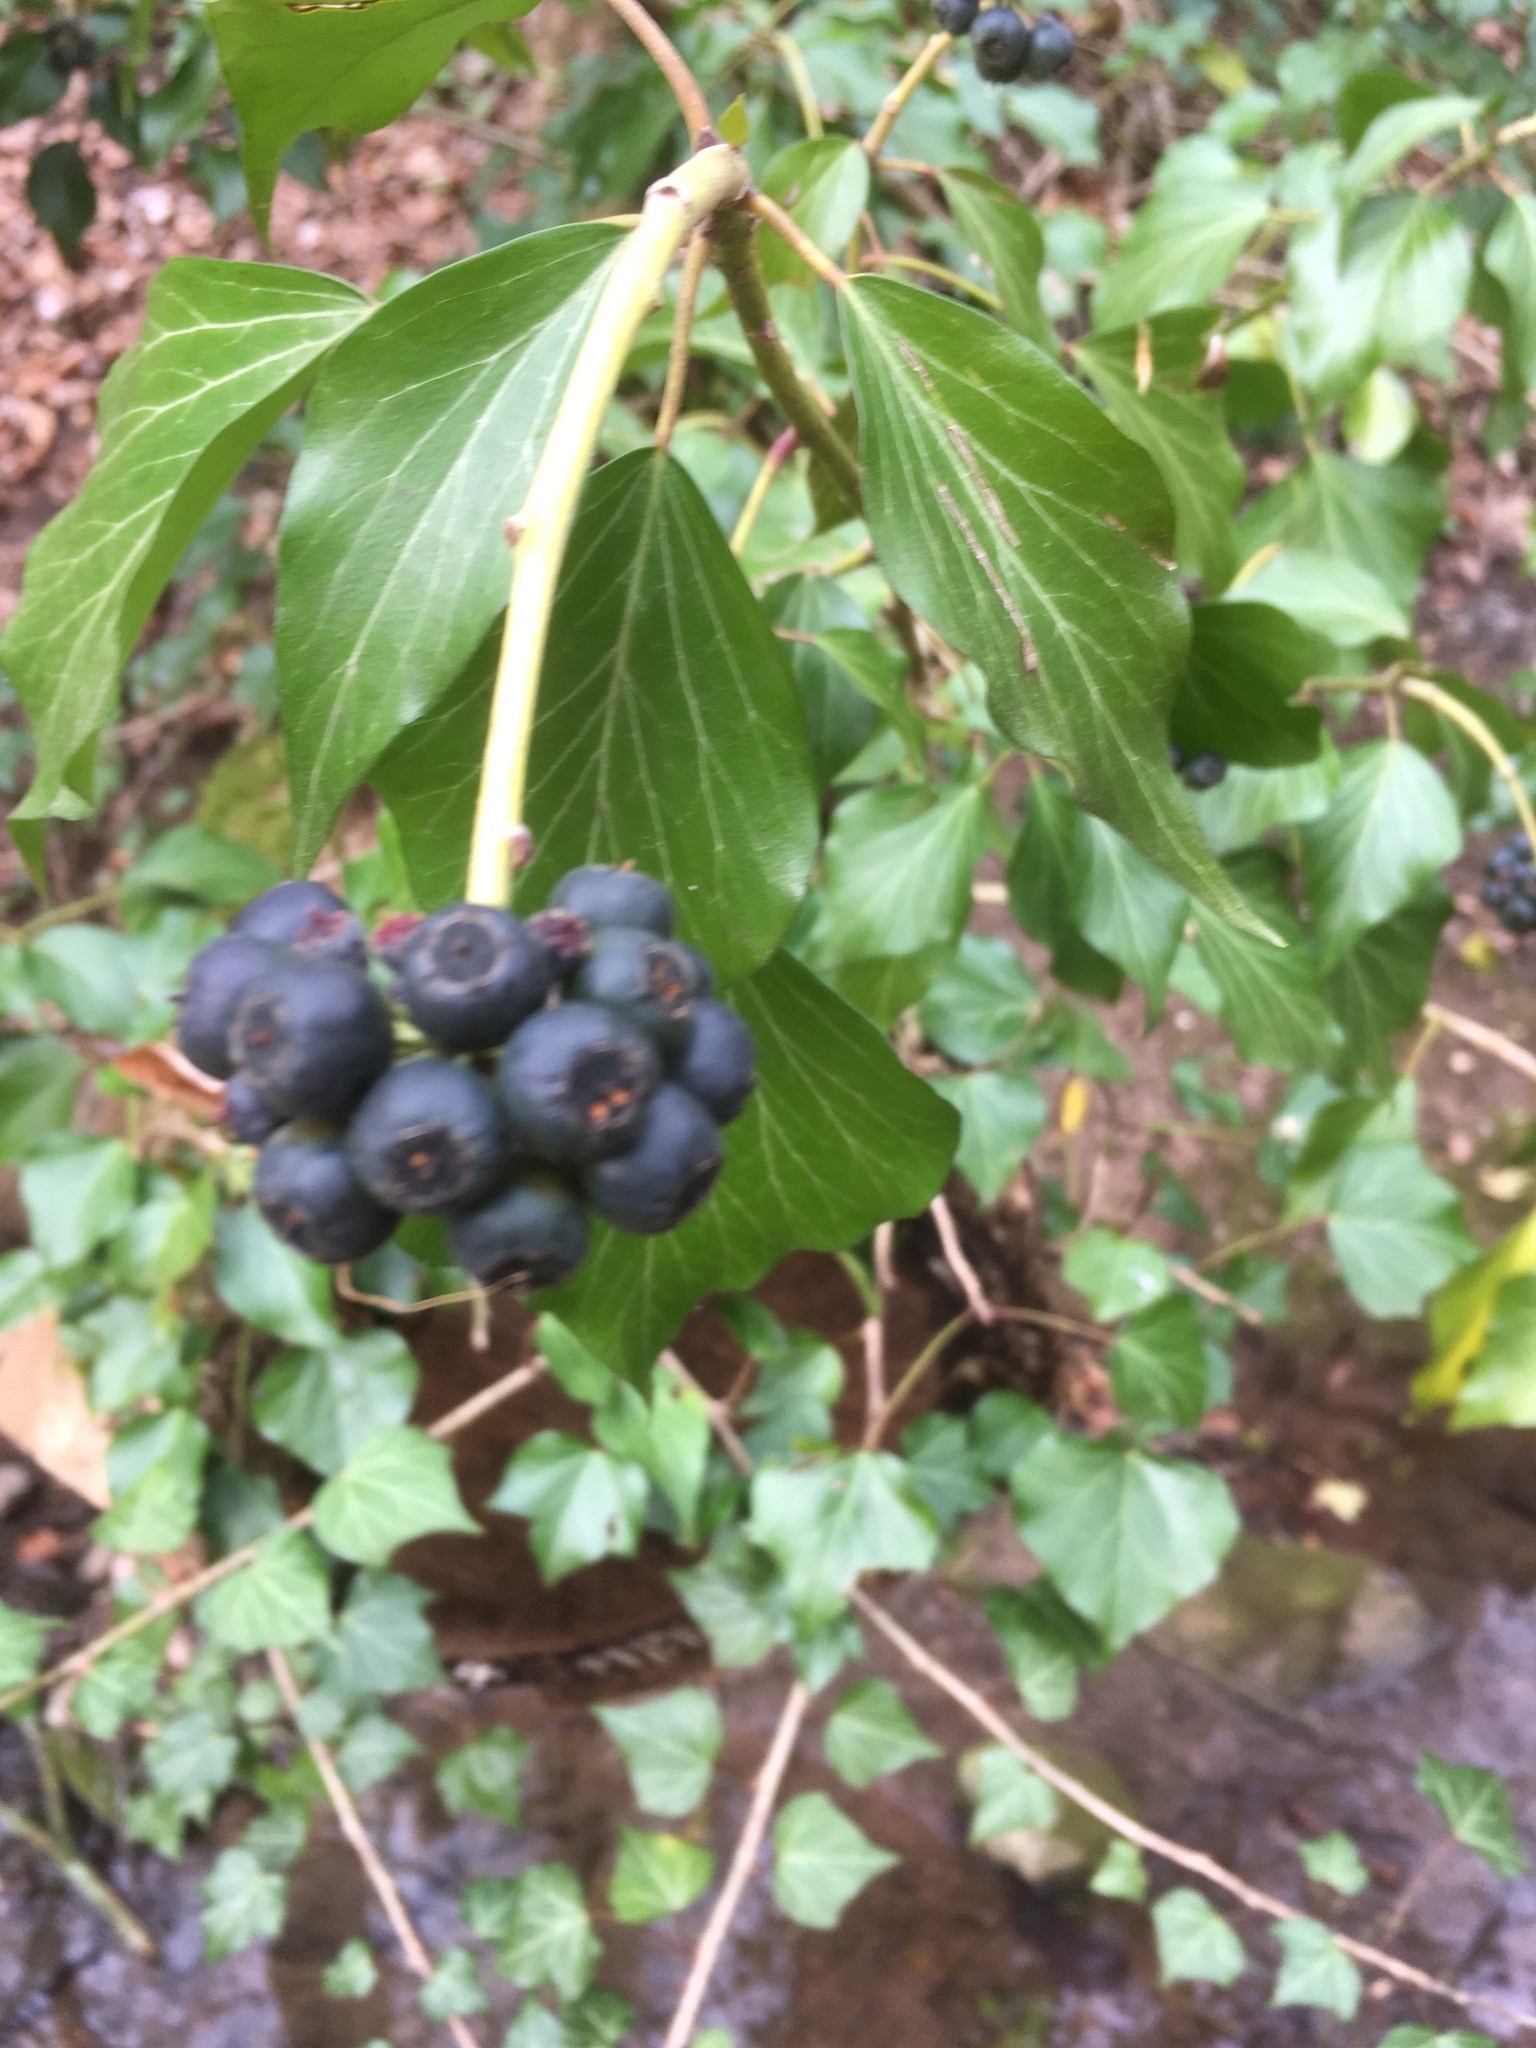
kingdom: Plantae
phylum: Tracheophyta
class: Magnoliopsida
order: Apiales
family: Araliaceae
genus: Hedera
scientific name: Hedera helix
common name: Ivy
